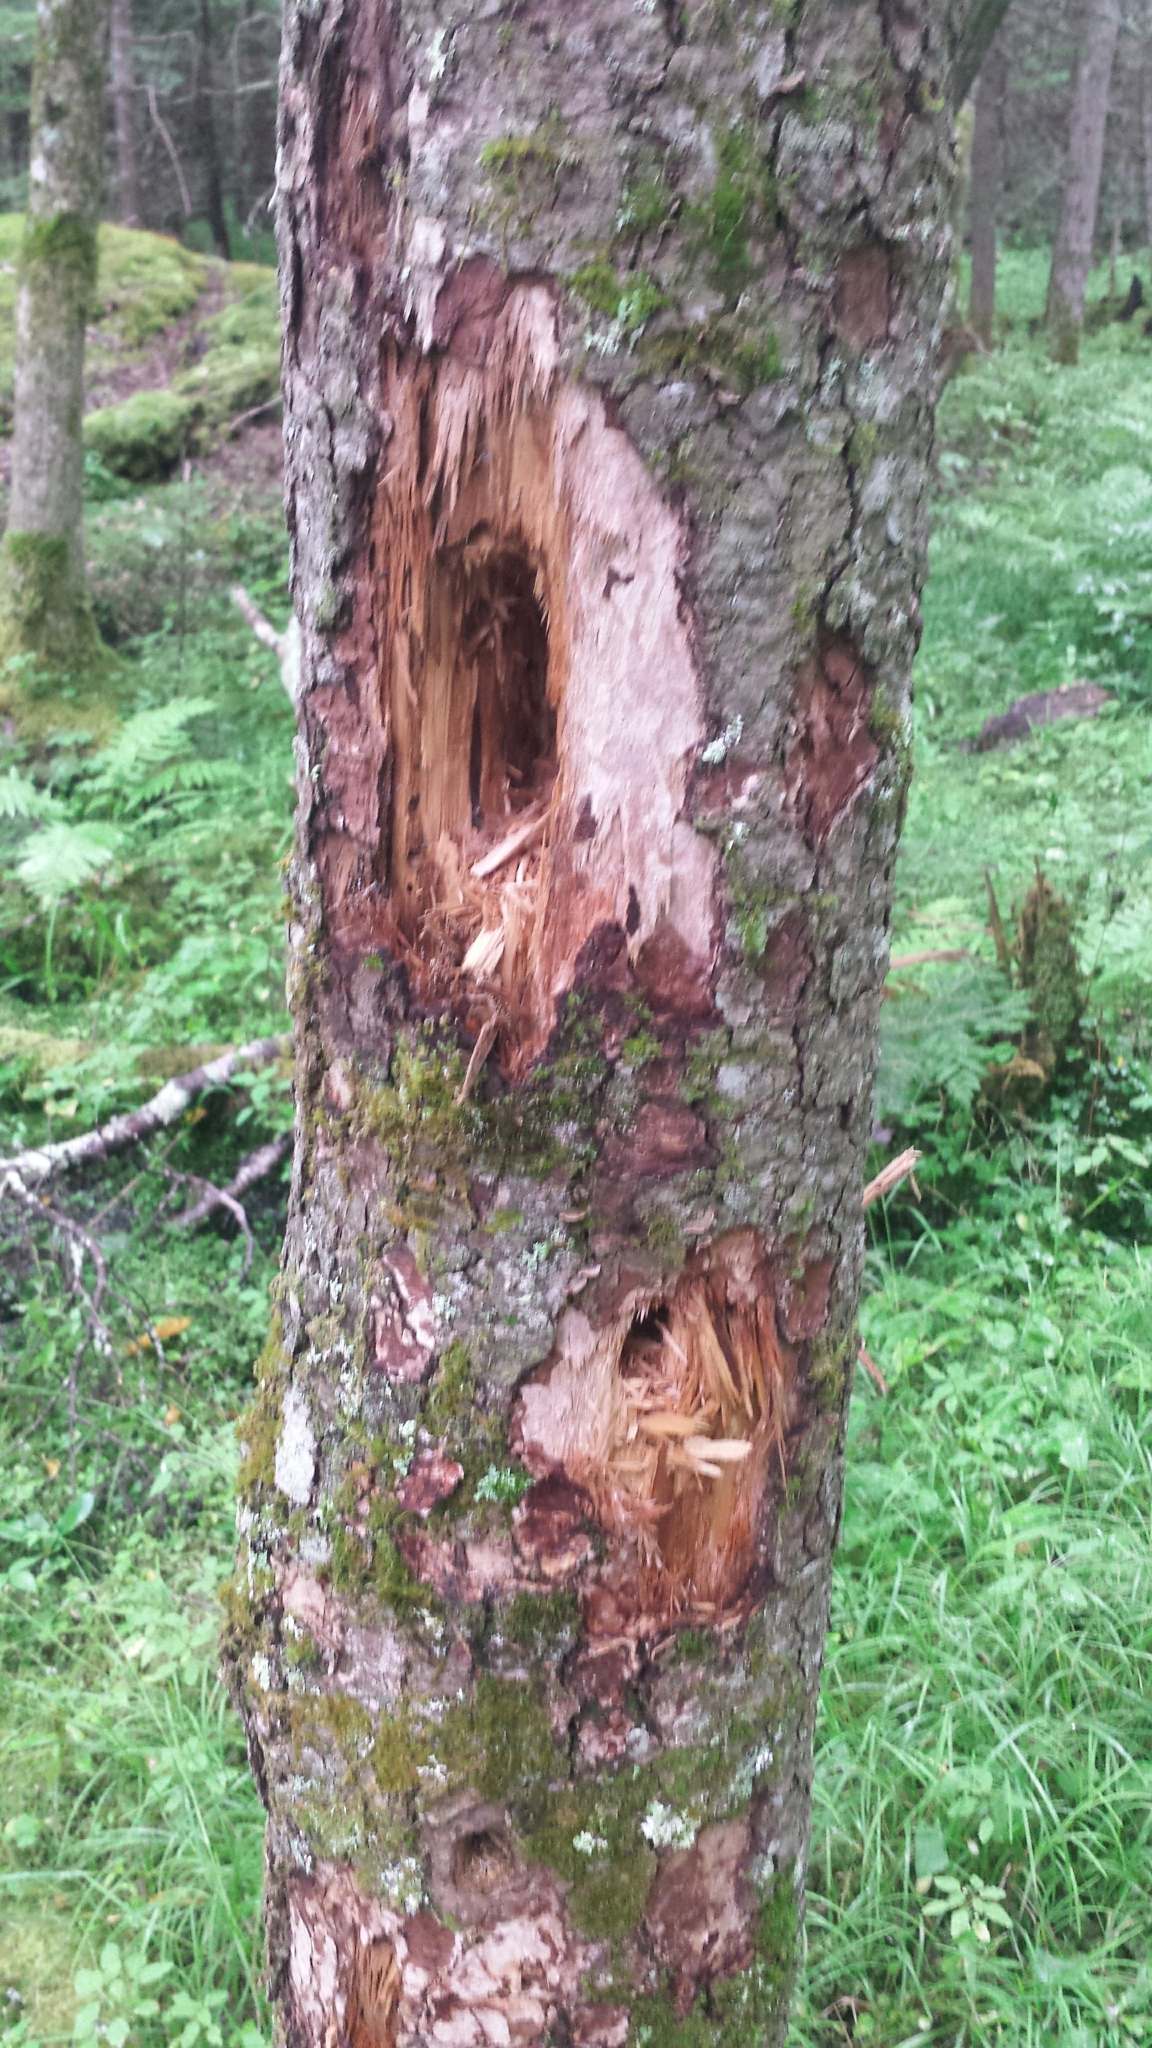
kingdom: Animalia
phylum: Chordata
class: Aves
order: Piciformes
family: Picidae
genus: Dryocopus
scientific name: Dryocopus pileatus
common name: Pileated woodpecker
